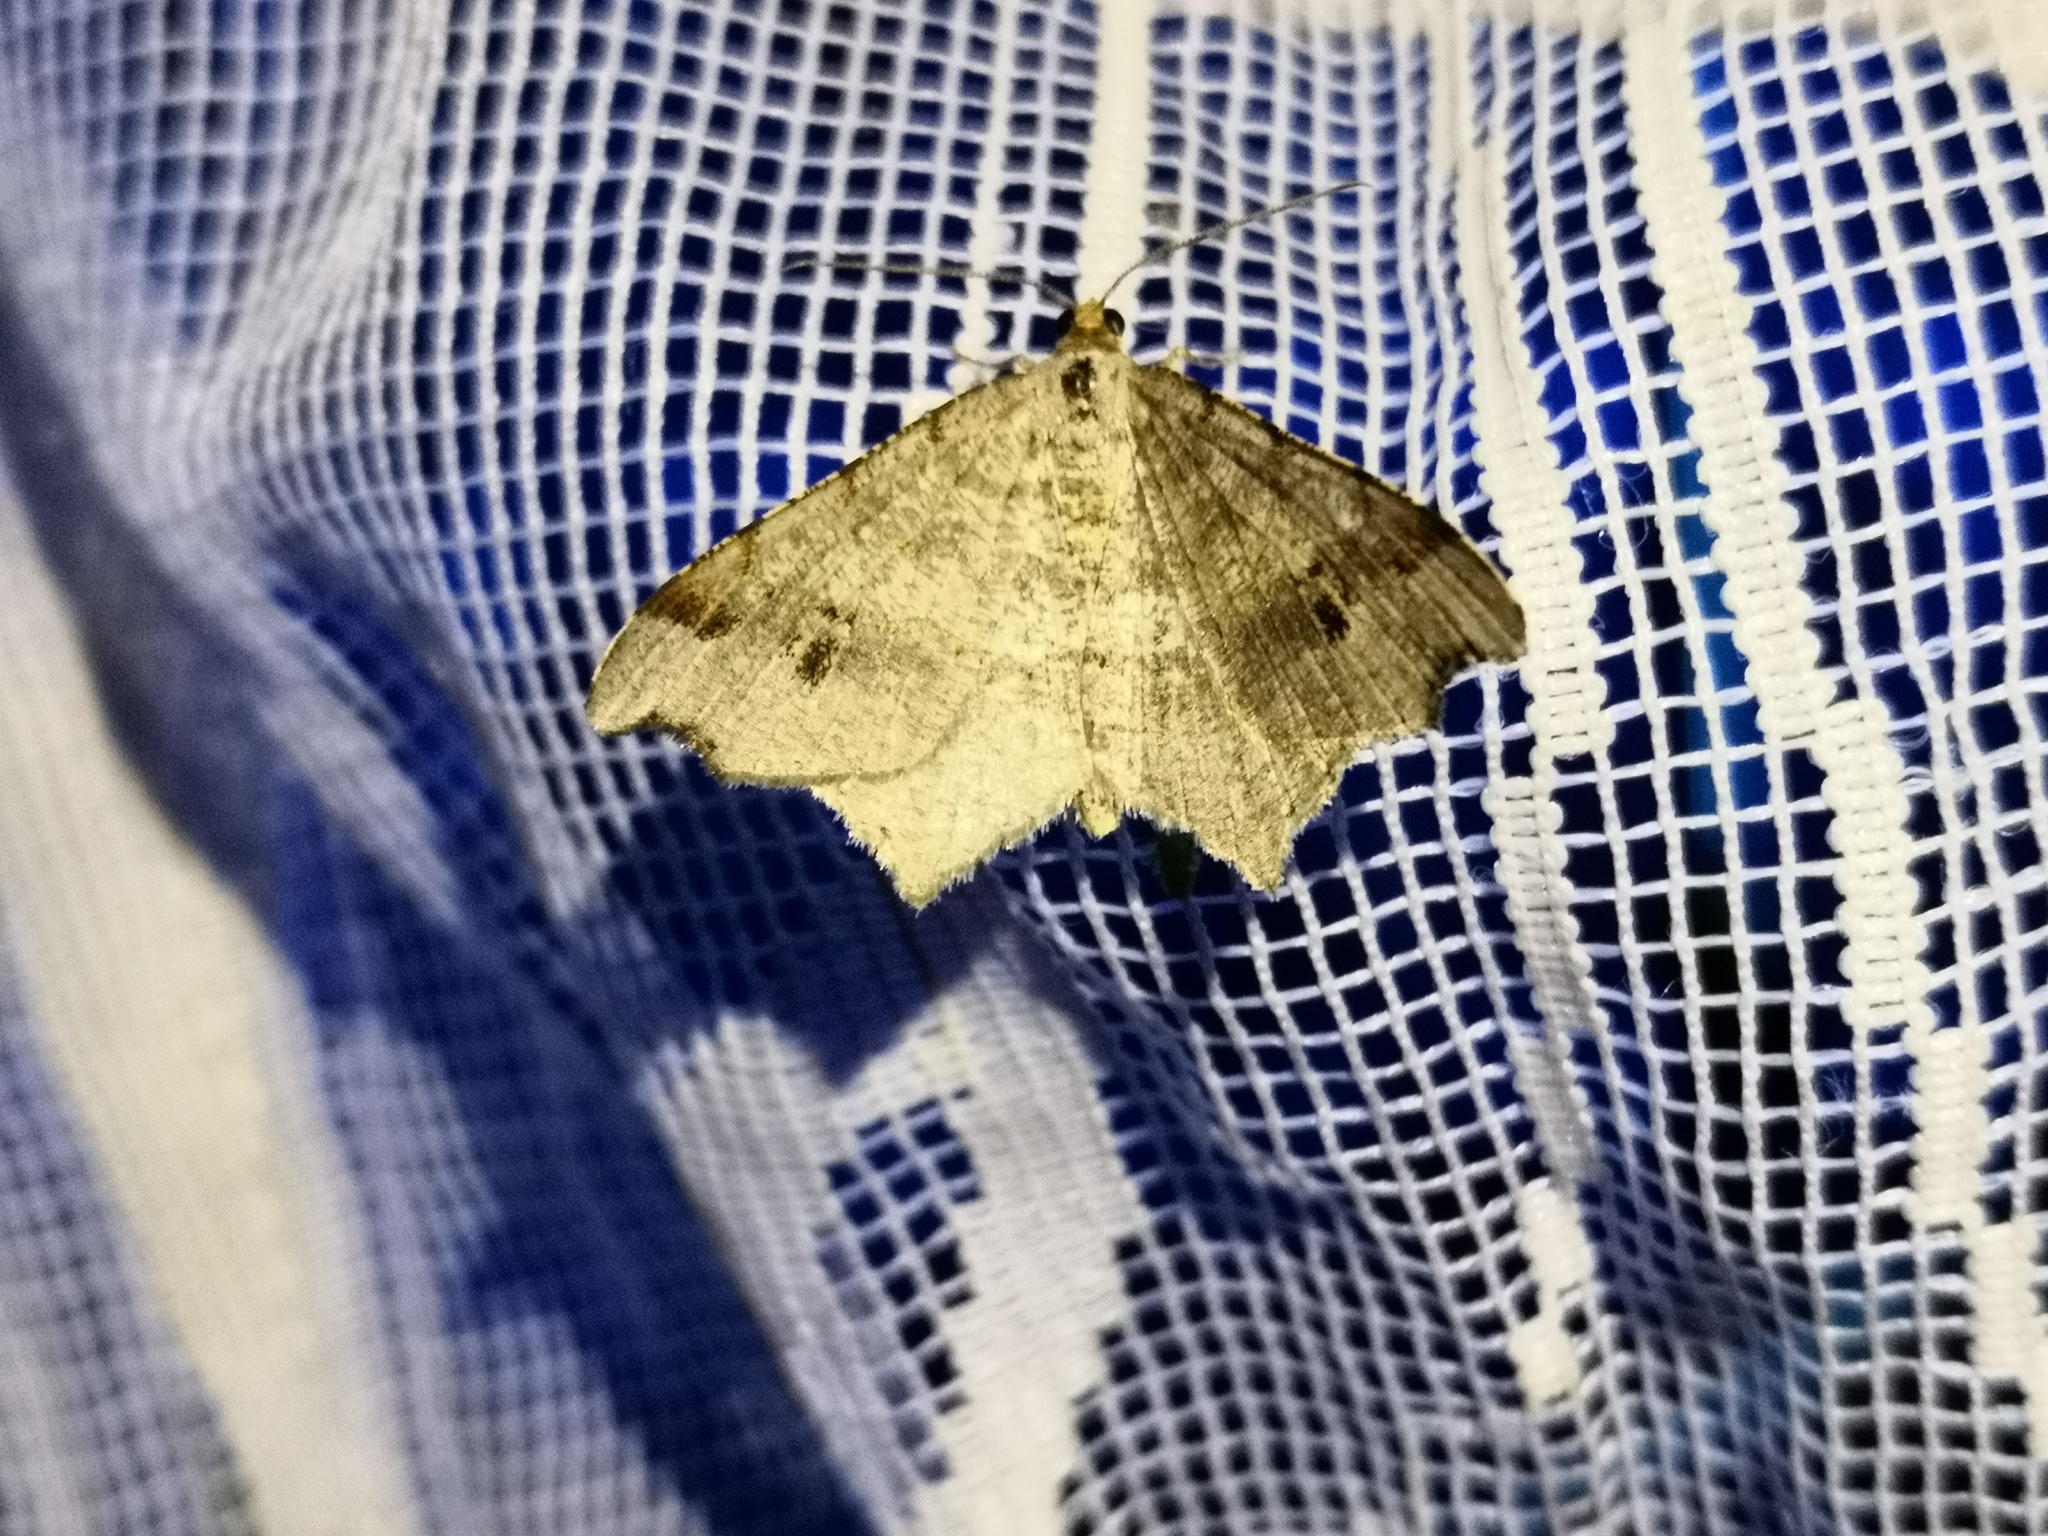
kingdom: Animalia
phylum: Arthropoda
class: Insecta
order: Lepidoptera
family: Geometridae
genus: Macaria
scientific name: Macaria alternata
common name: Sharp-angled peacock
